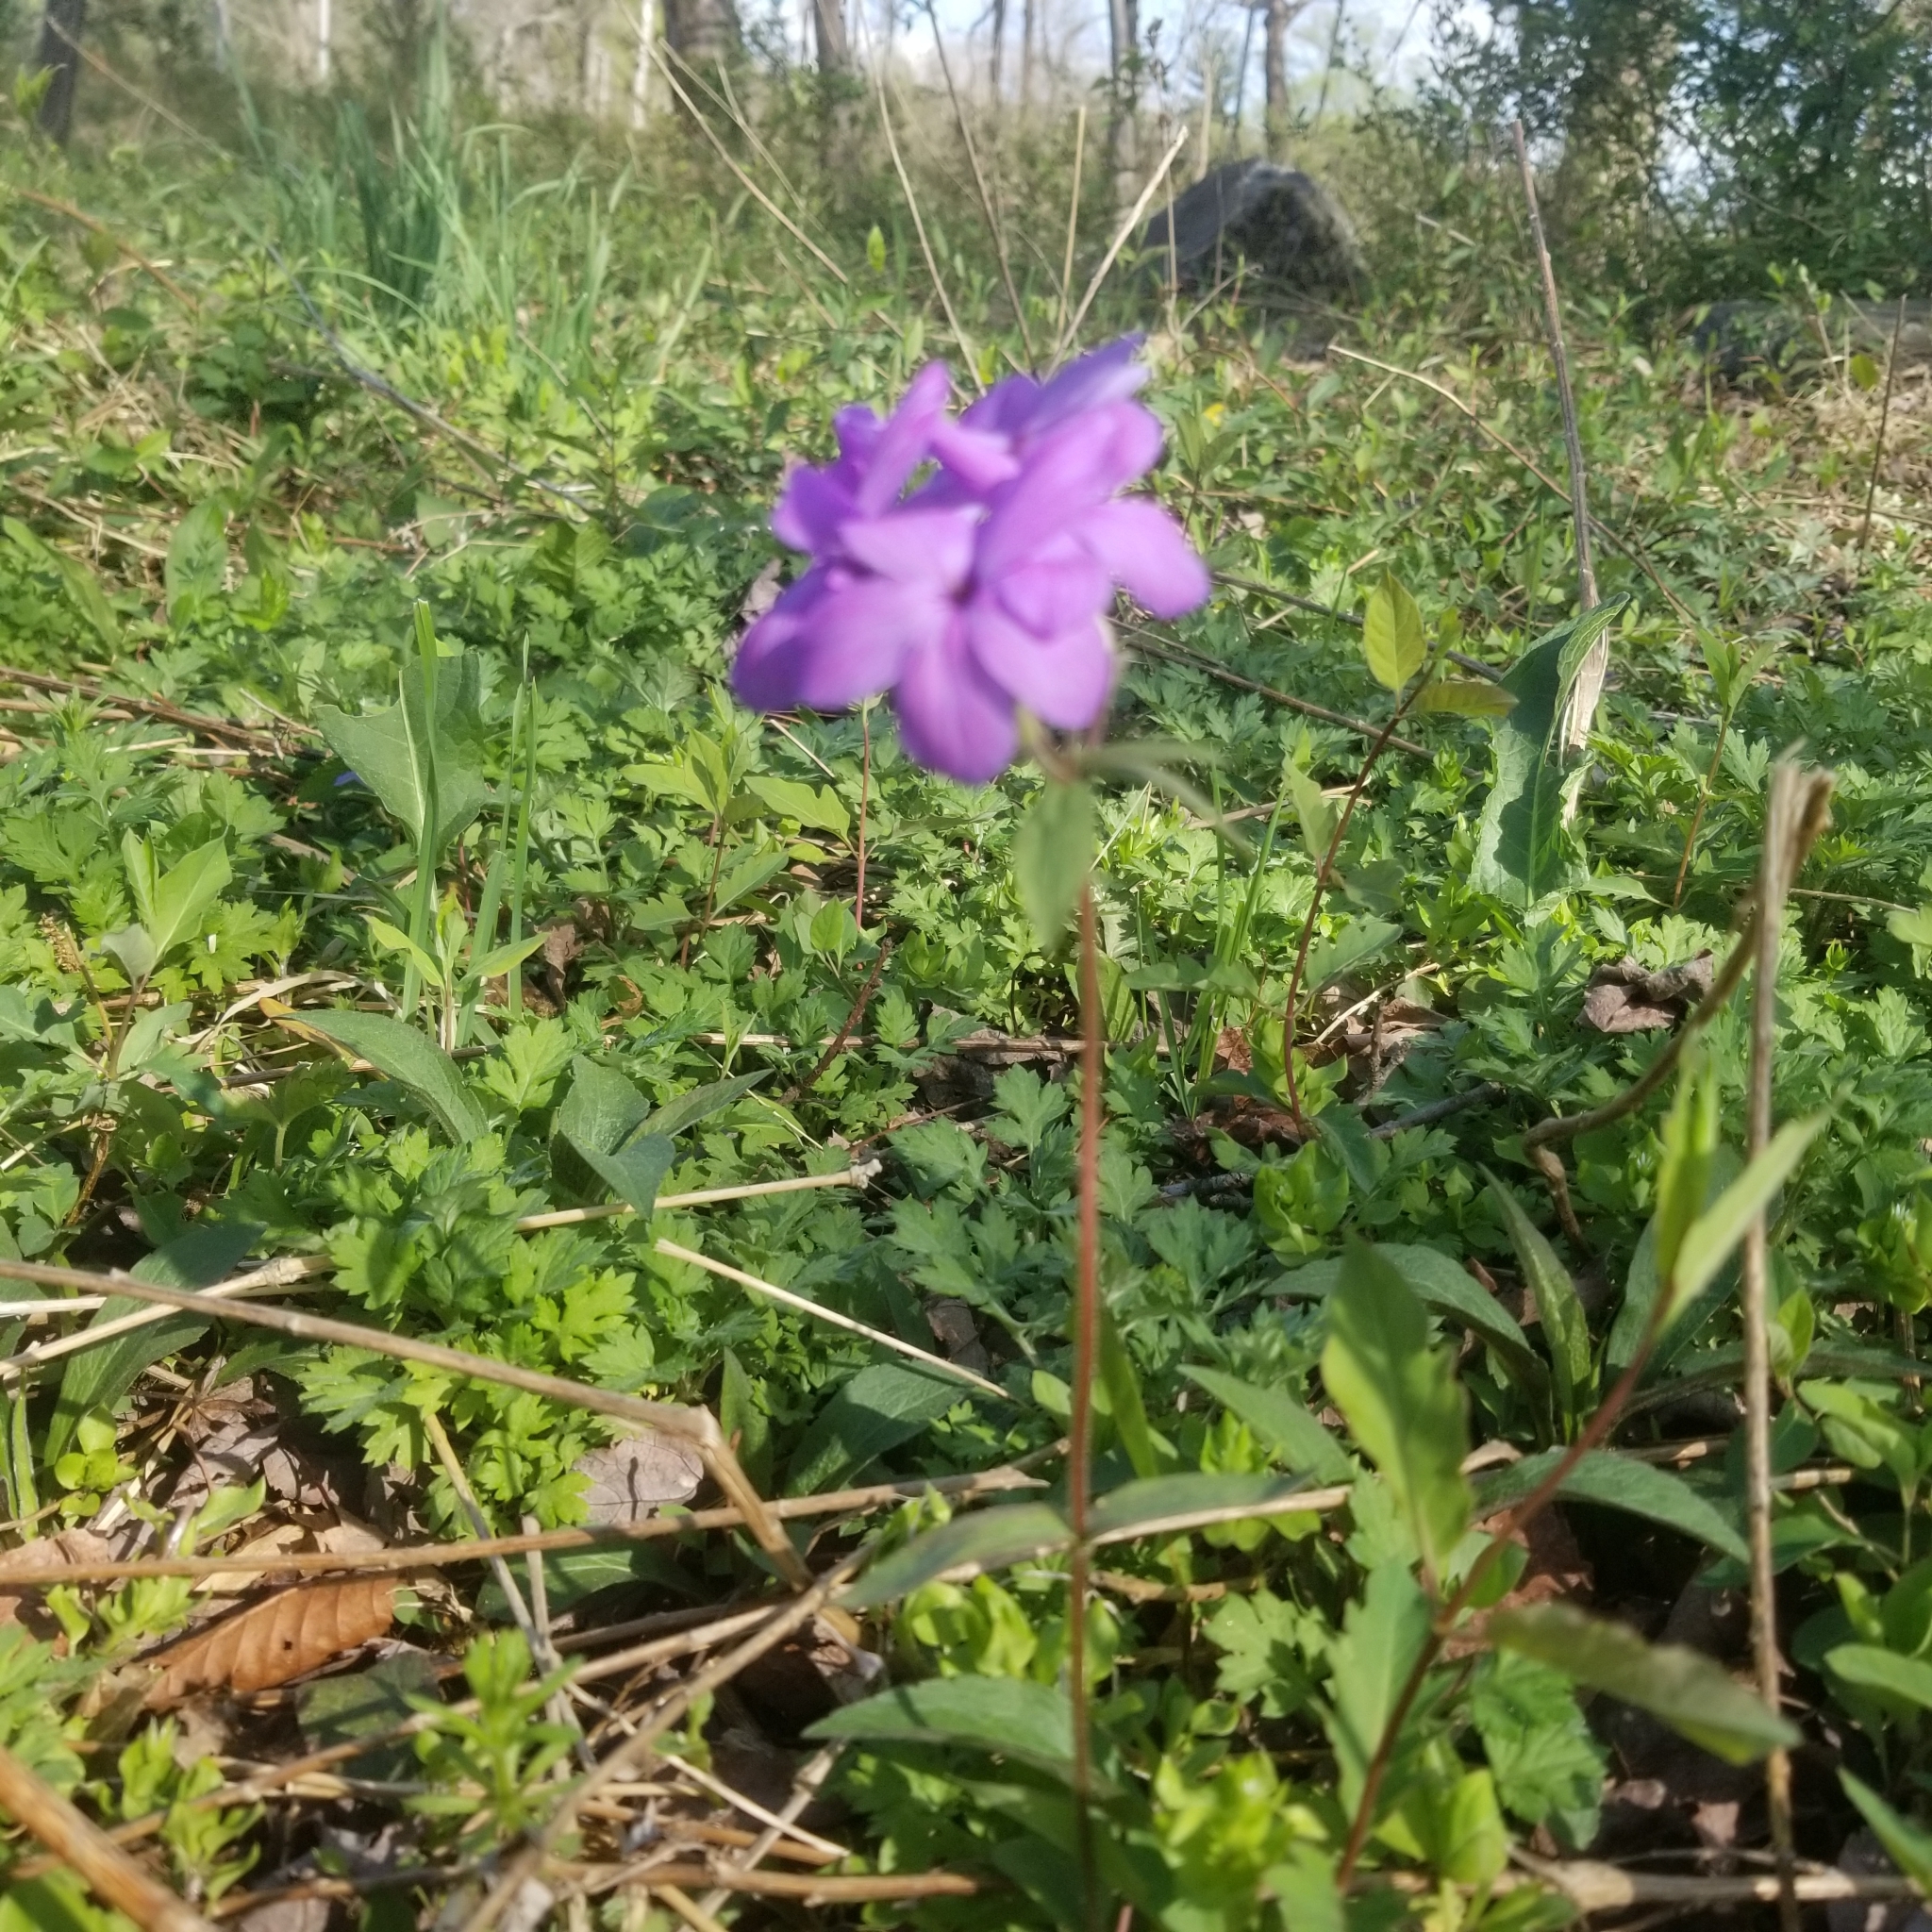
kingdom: Plantae
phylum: Tracheophyta
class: Magnoliopsida
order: Ericales
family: Polemoniaceae
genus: Phlox
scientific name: Phlox stolonifera
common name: Creeping phlox
